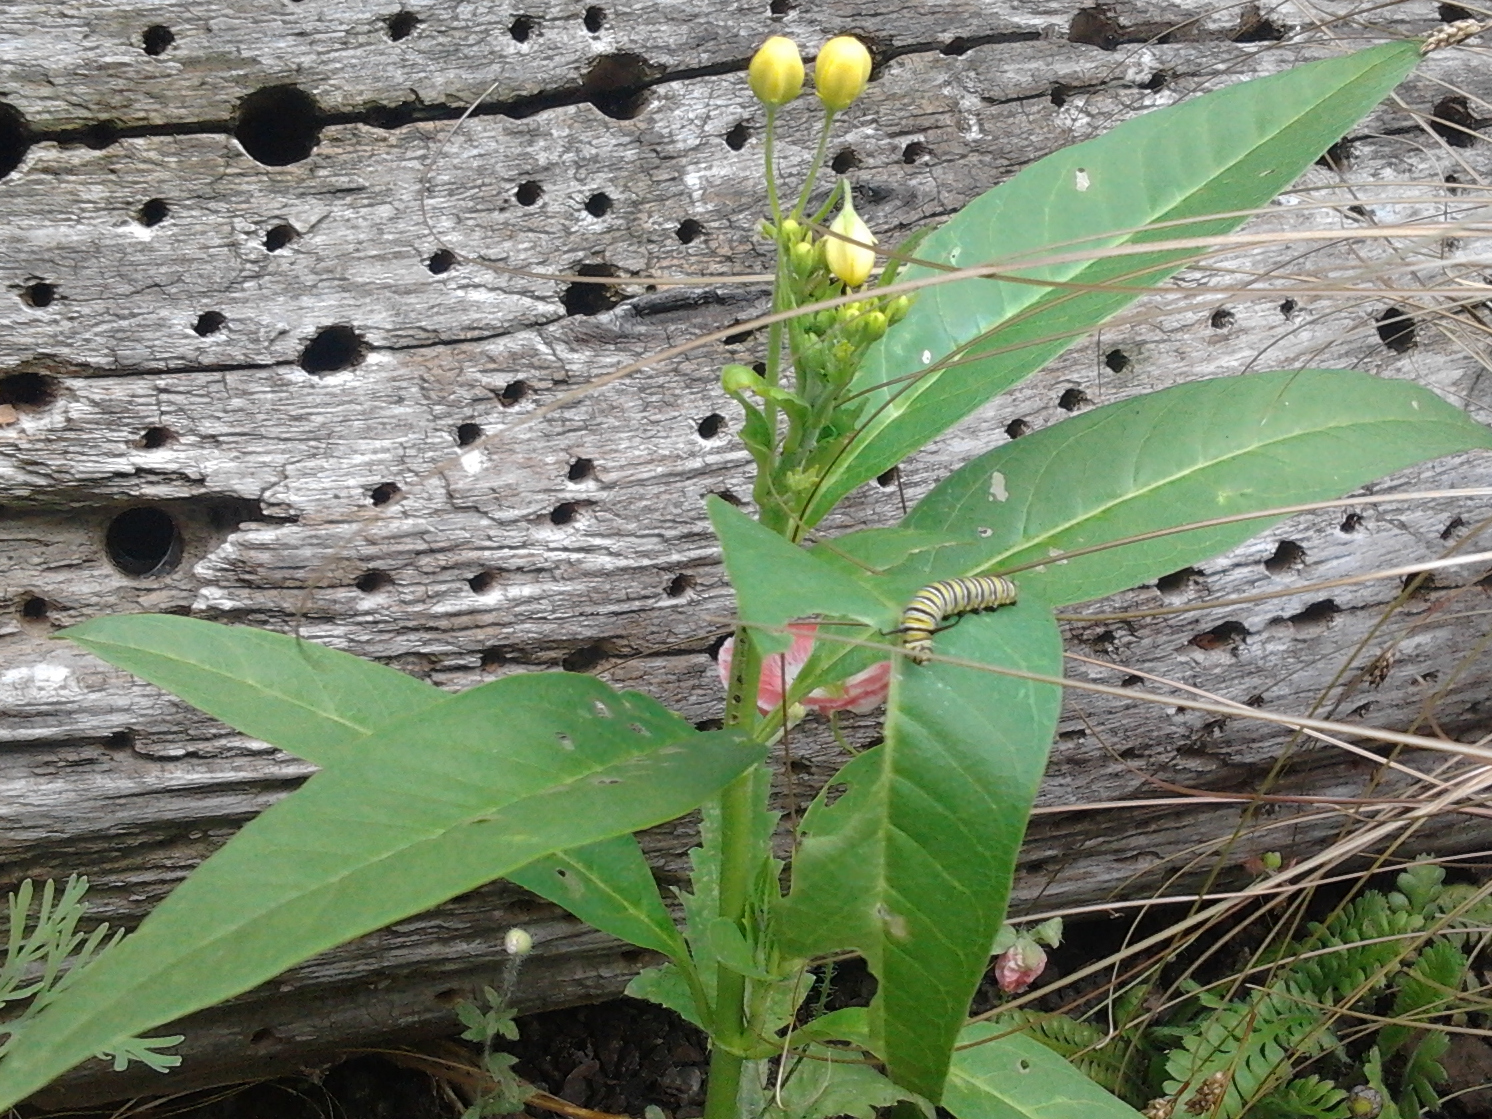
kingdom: Animalia
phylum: Arthropoda
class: Insecta
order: Lepidoptera
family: Nymphalidae
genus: Danaus
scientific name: Danaus plexippus
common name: Monarch
